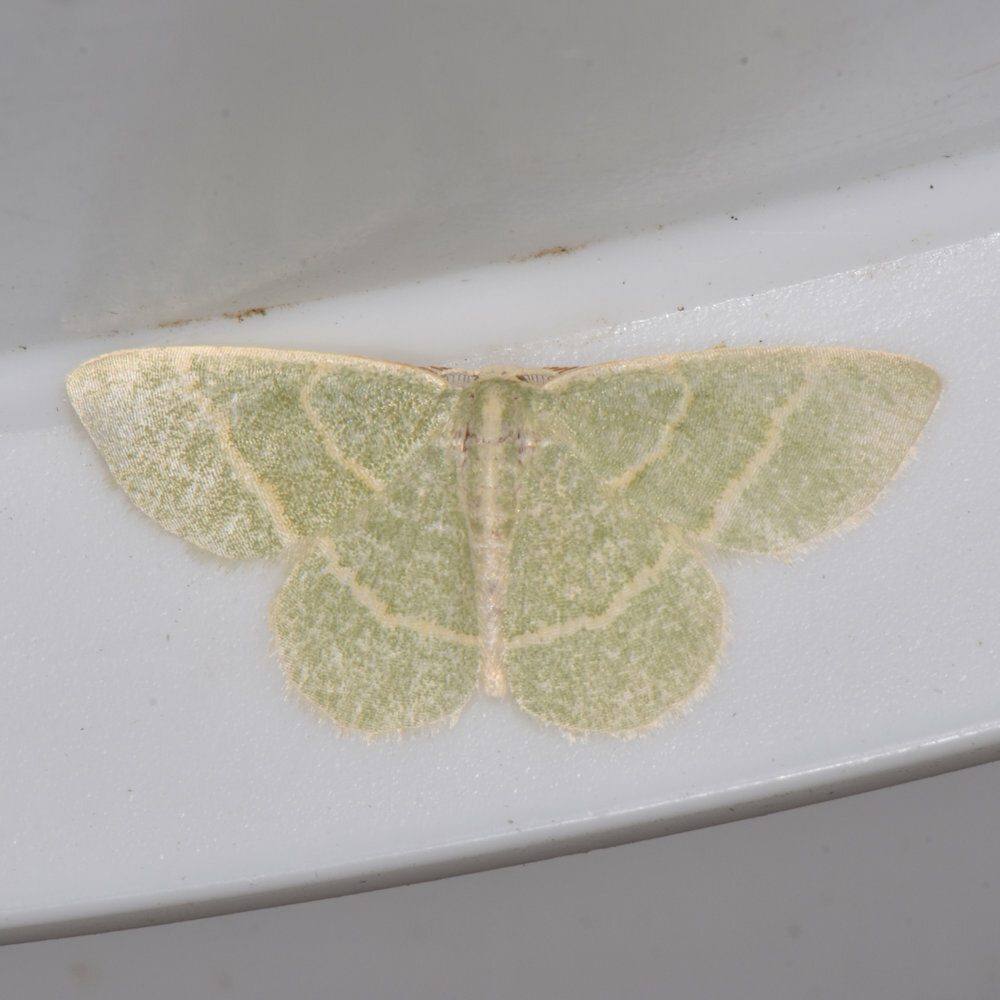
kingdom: Animalia
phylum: Arthropoda
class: Insecta
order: Lepidoptera
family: Geometridae
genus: Chlorochlamys
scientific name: Chlorochlamys chloroleucaria
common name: Blackberry looper
